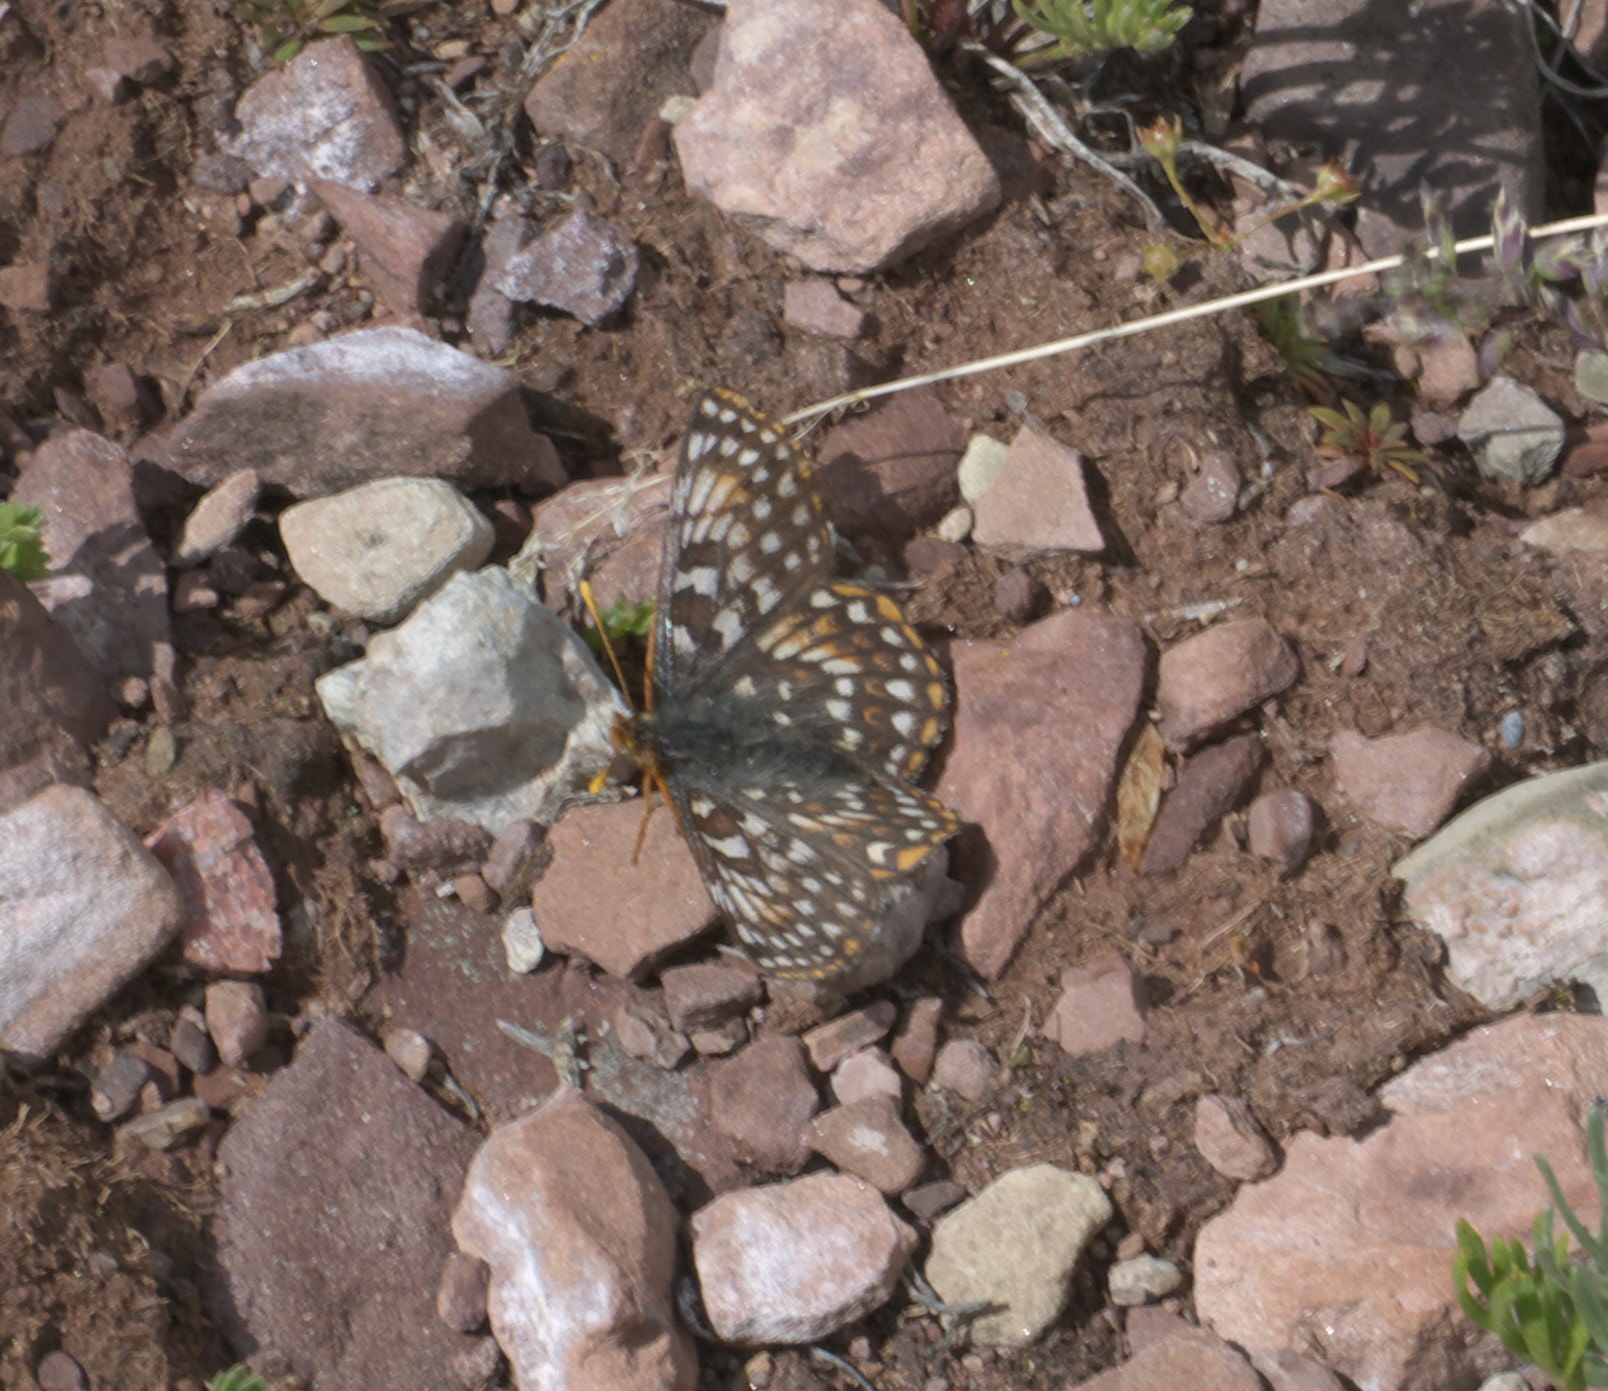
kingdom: Animalia
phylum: Arthropoda
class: Insecta
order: Lepidoptera
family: Nymphalidae
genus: Occidryas
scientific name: Occidryas anicia
